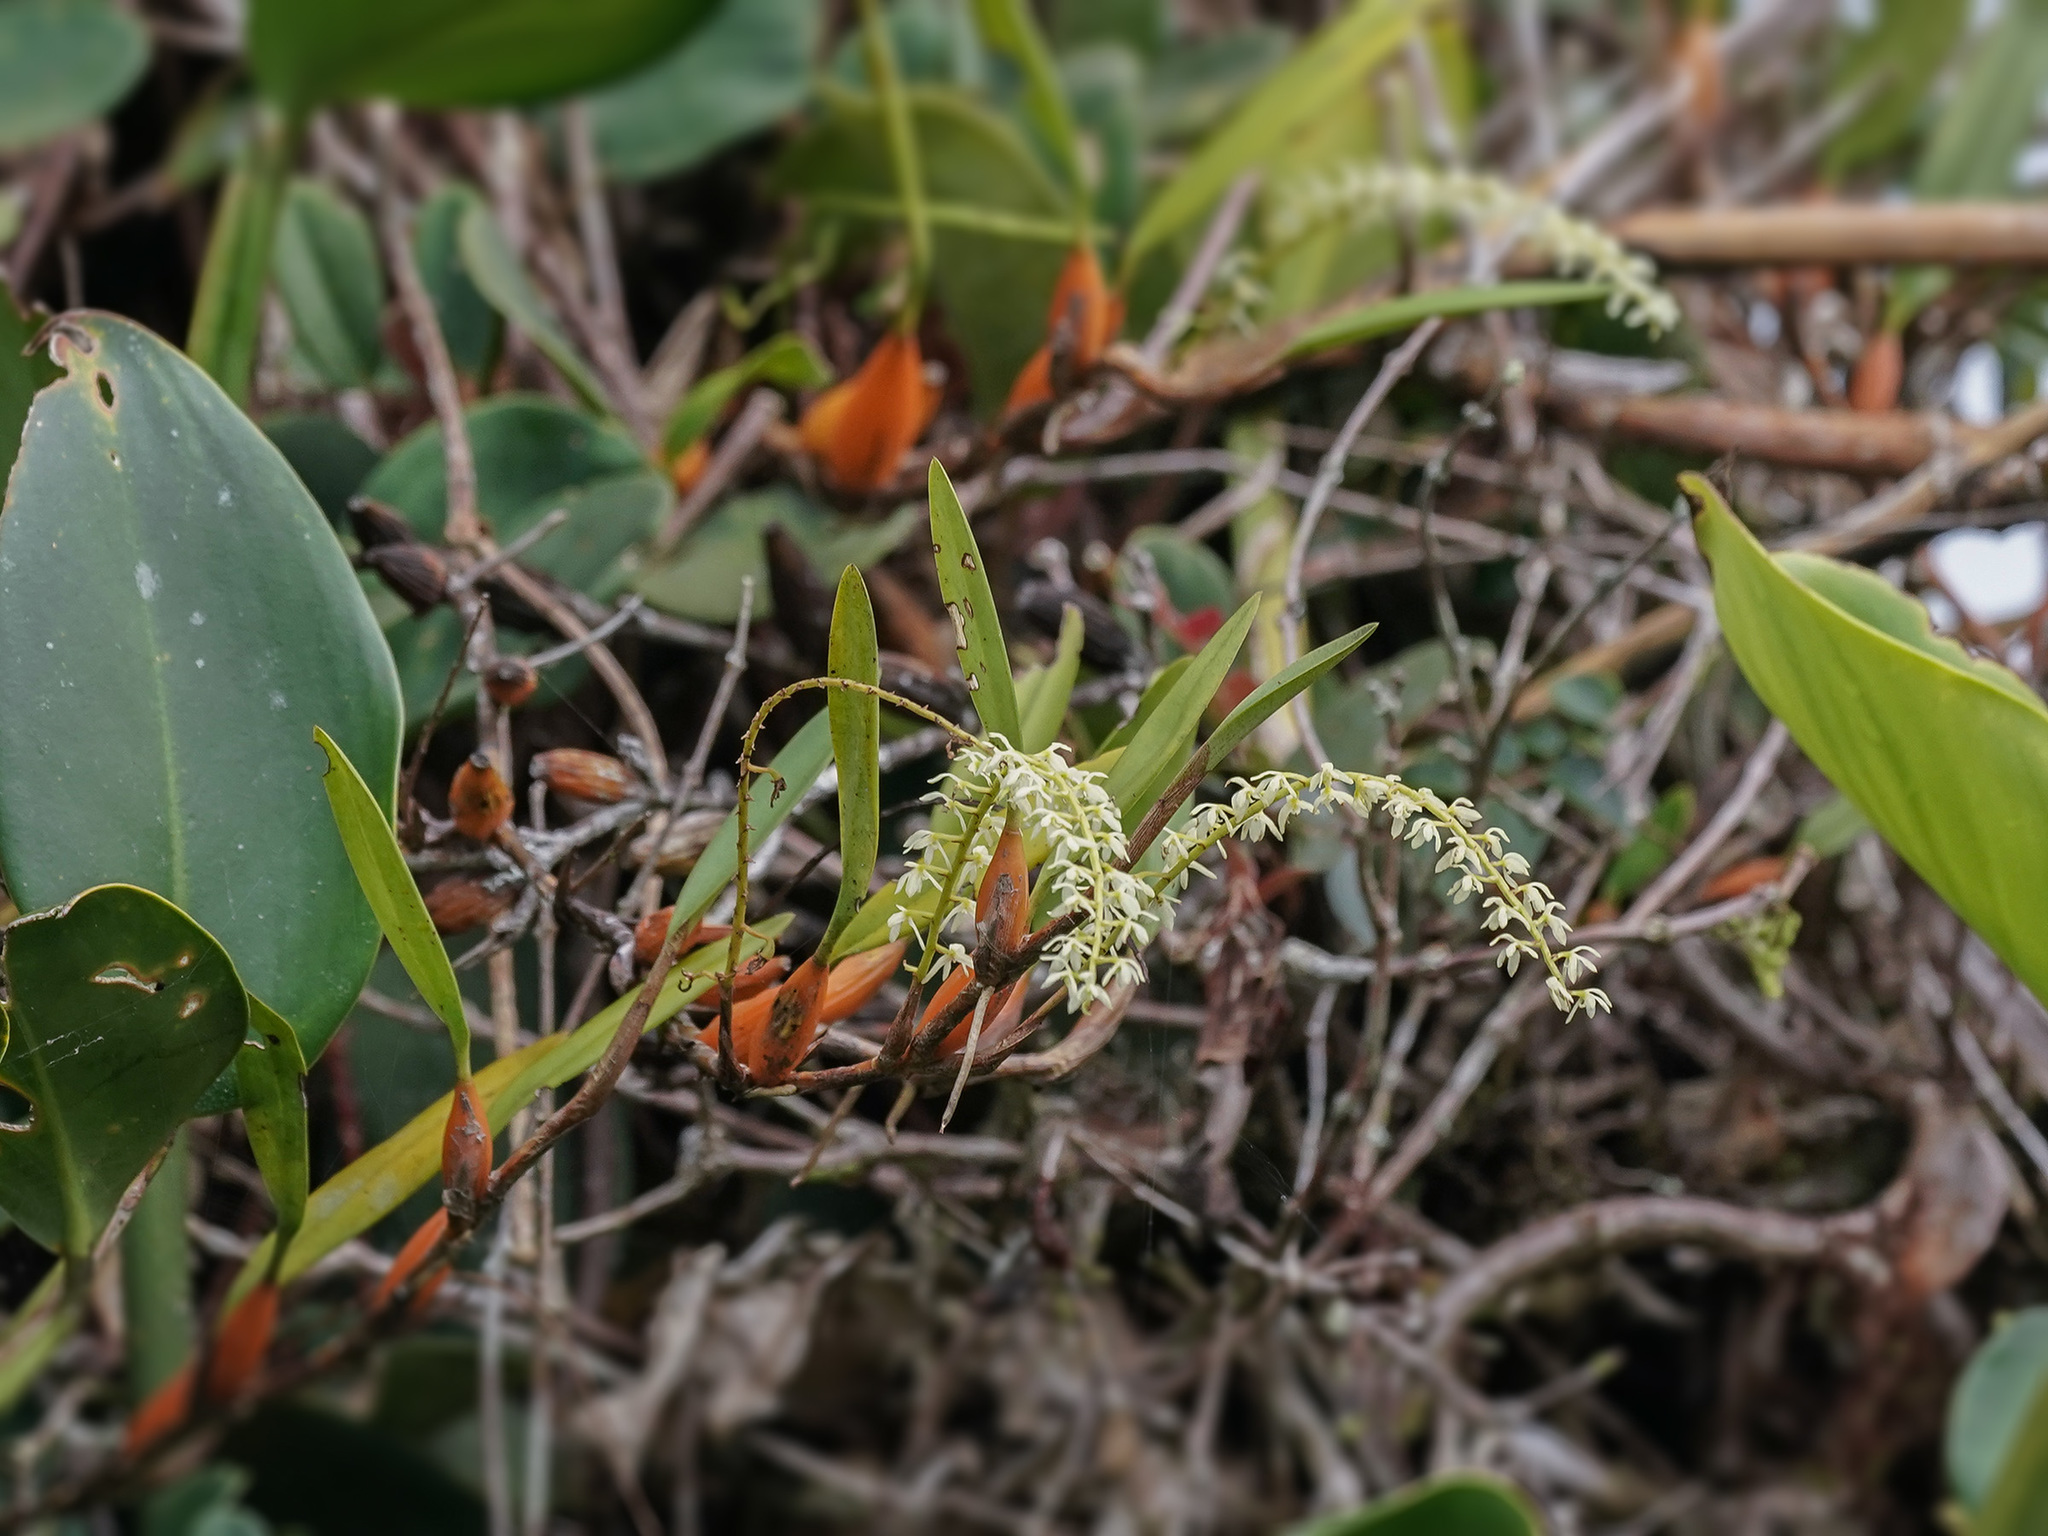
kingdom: Plantae
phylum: Tracheophyta
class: Liliopsida
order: Asparagales
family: Orchidaceae
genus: Coelogyne
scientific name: Coelogyne pallidiflavens
